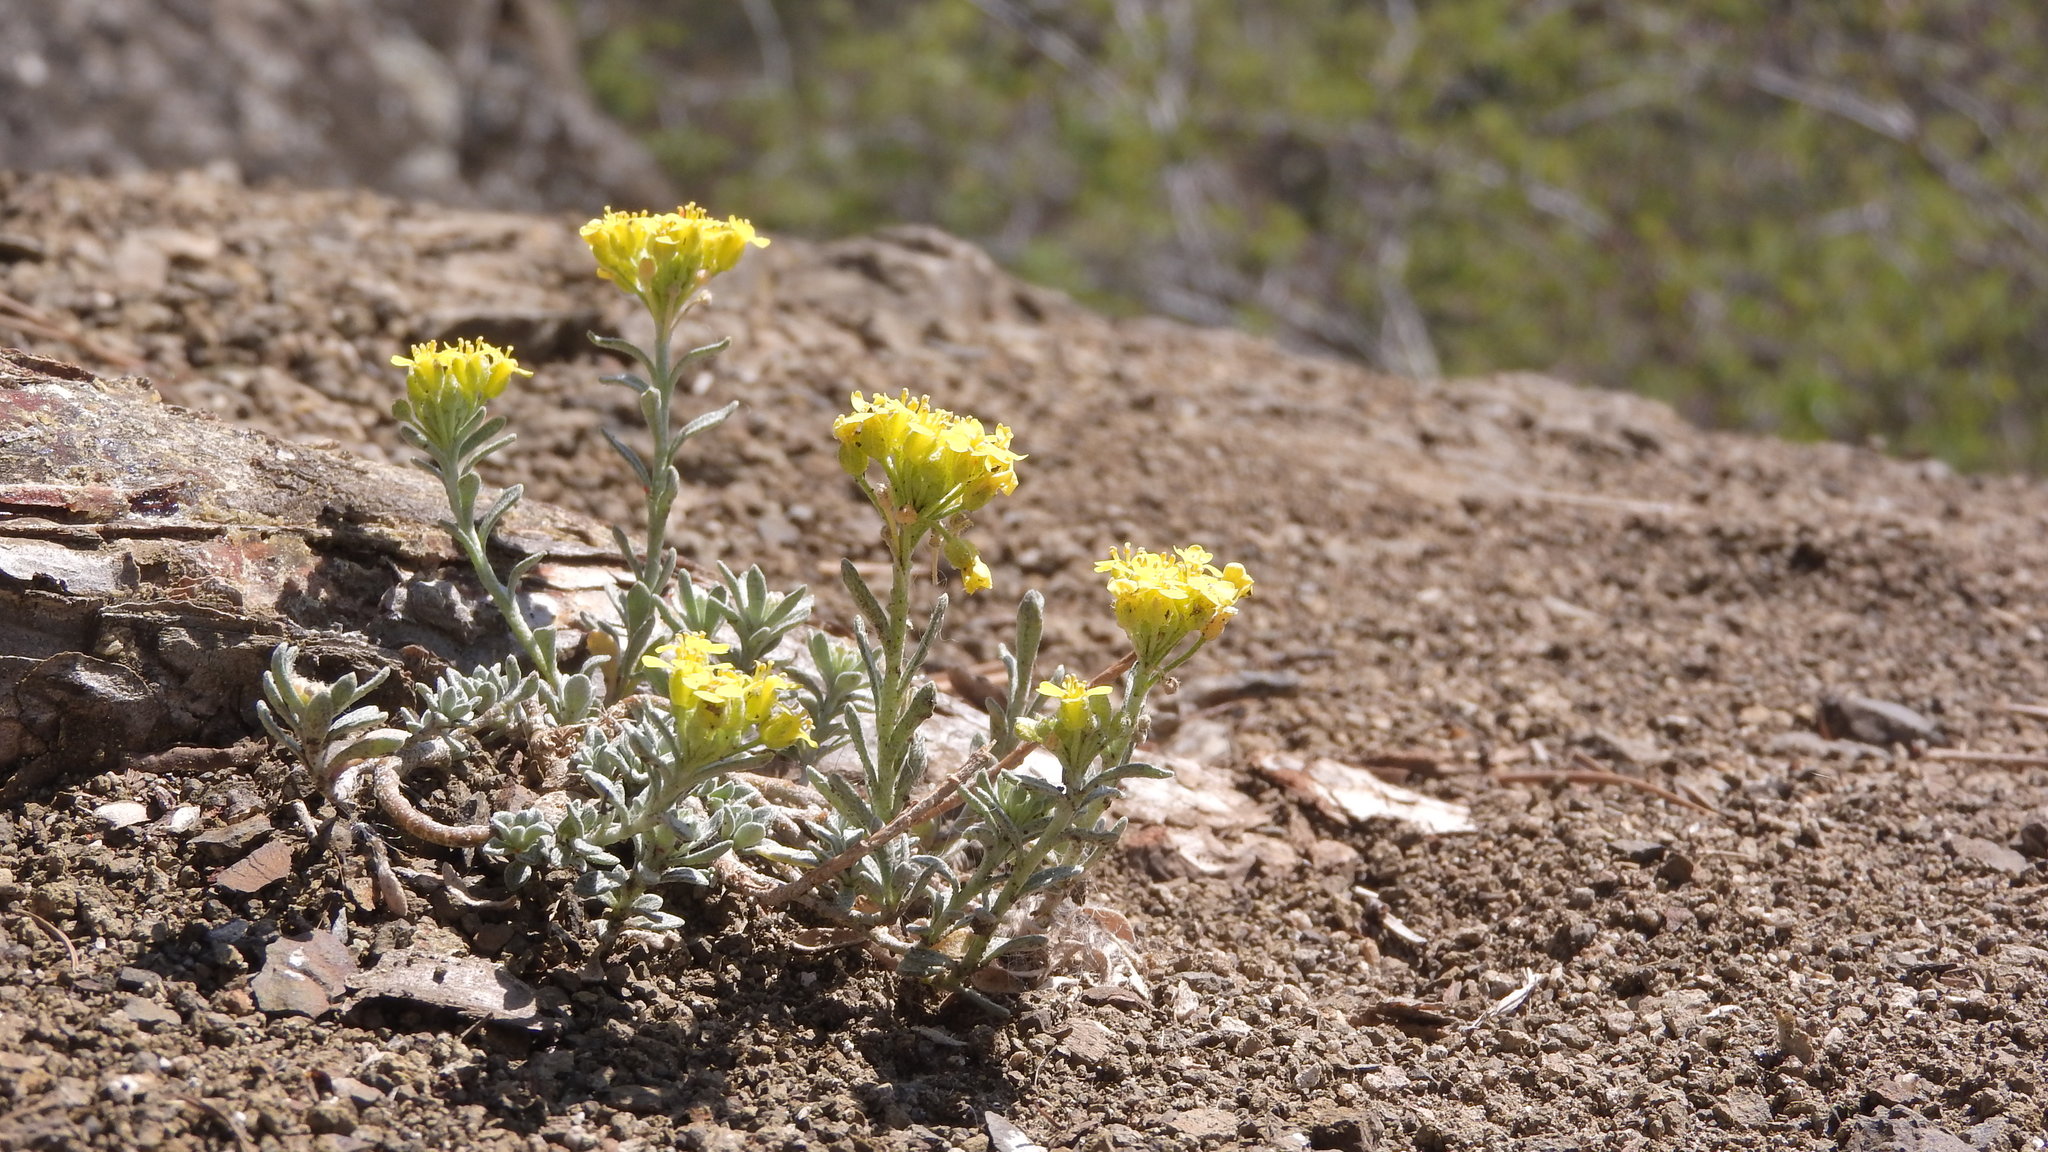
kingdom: Plantae
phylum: Tracheophyta
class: Magnoliopsida
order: Brassicales
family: Brassicaceae
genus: Alyssum
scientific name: Alyssum gmelinii
